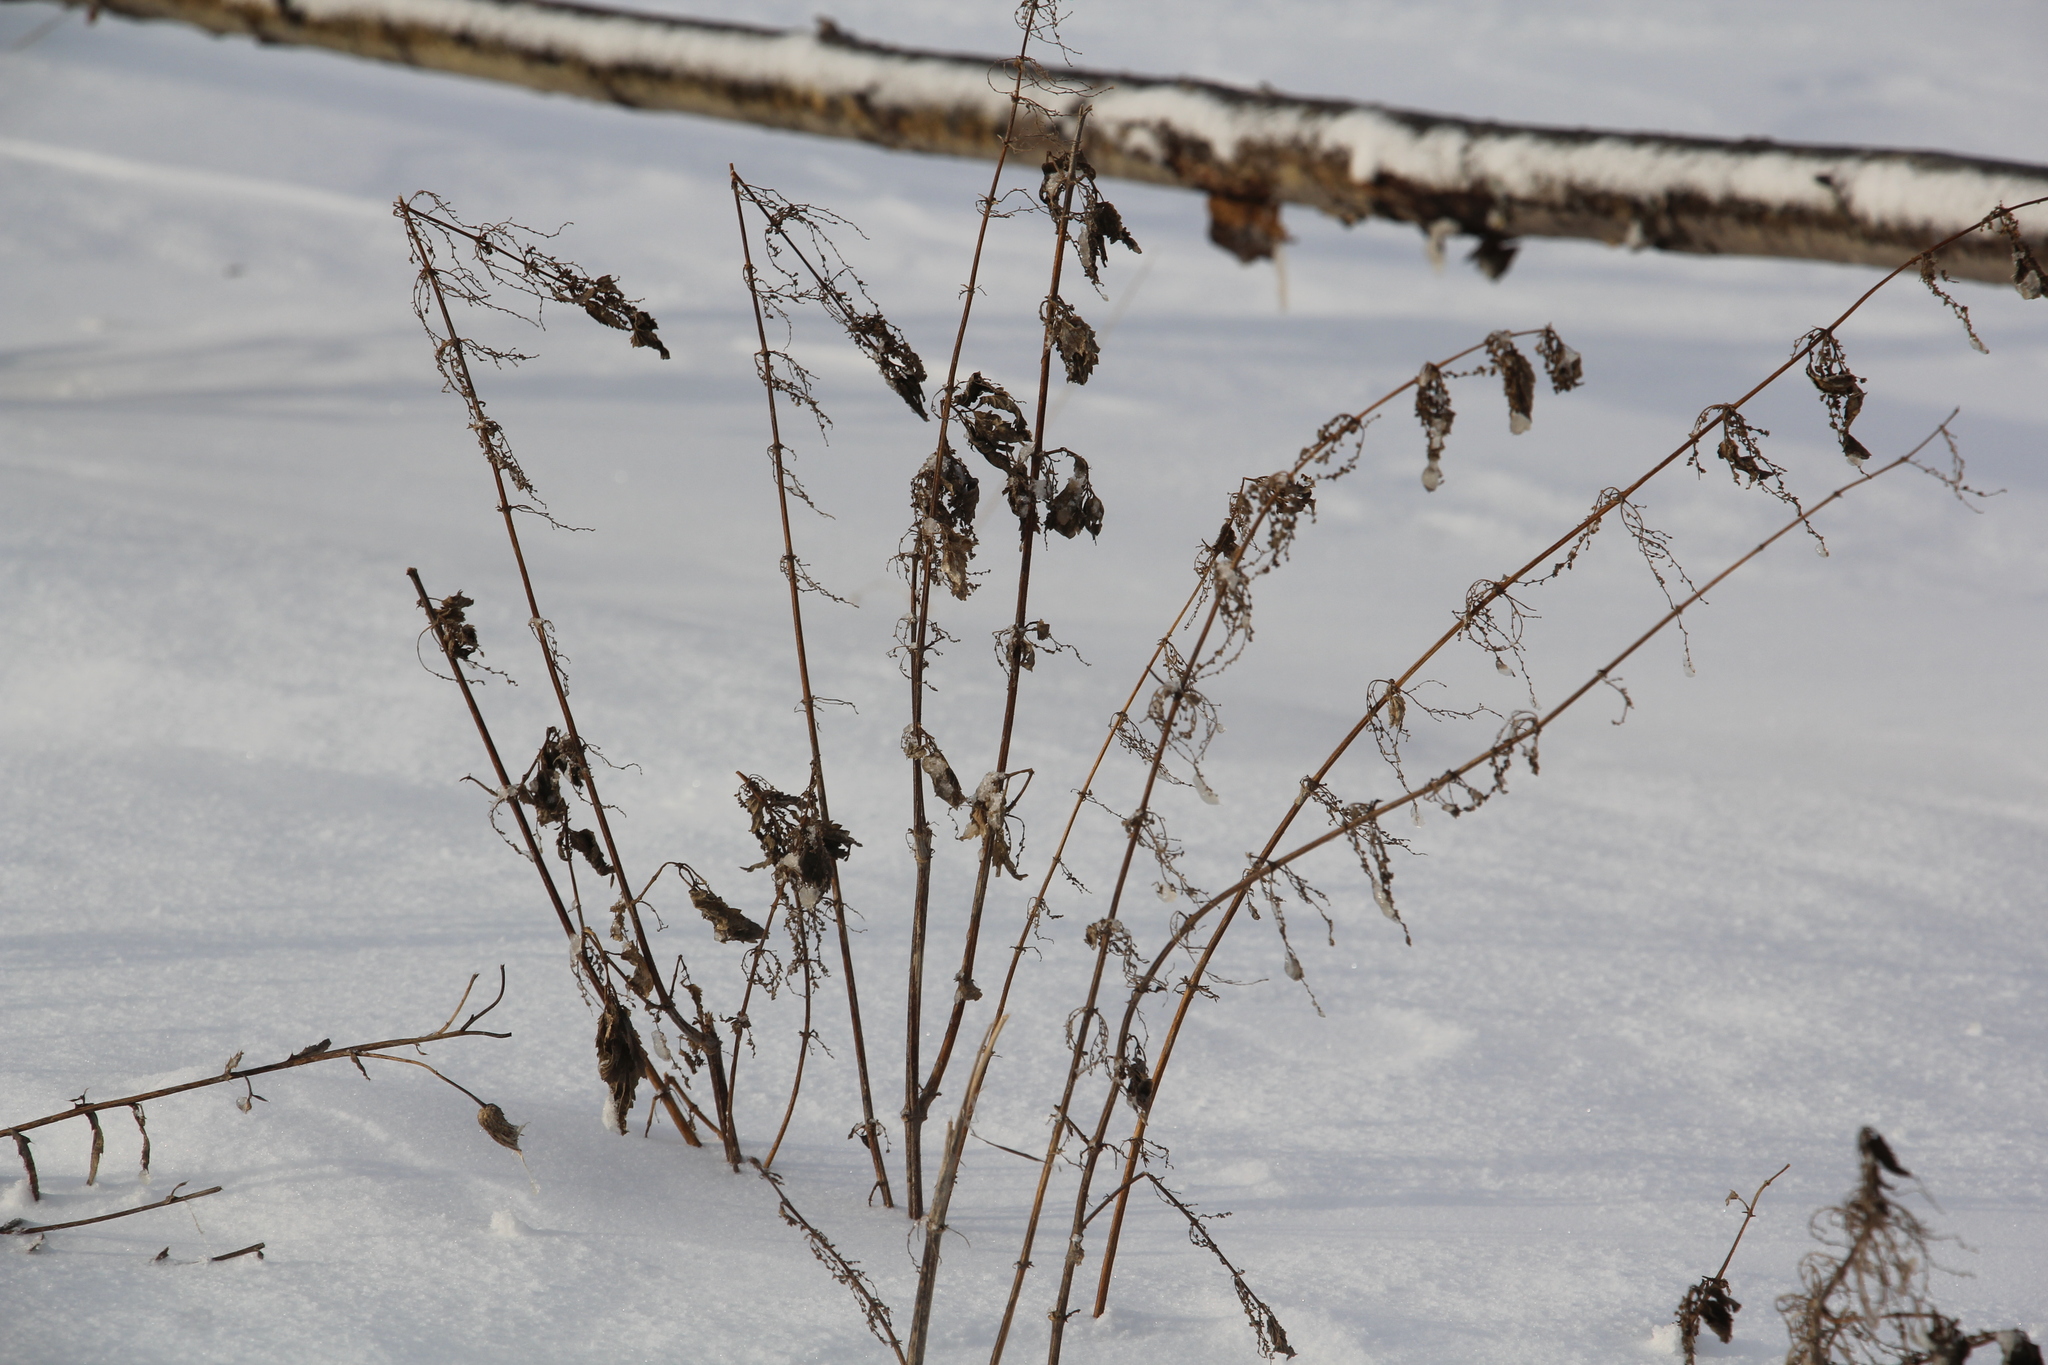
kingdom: Plantae
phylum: Tracheophyta
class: Magnoliopsida
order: Rosales
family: Urticaceae
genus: Urtica
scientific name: Urtica dioica
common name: Common nettle
